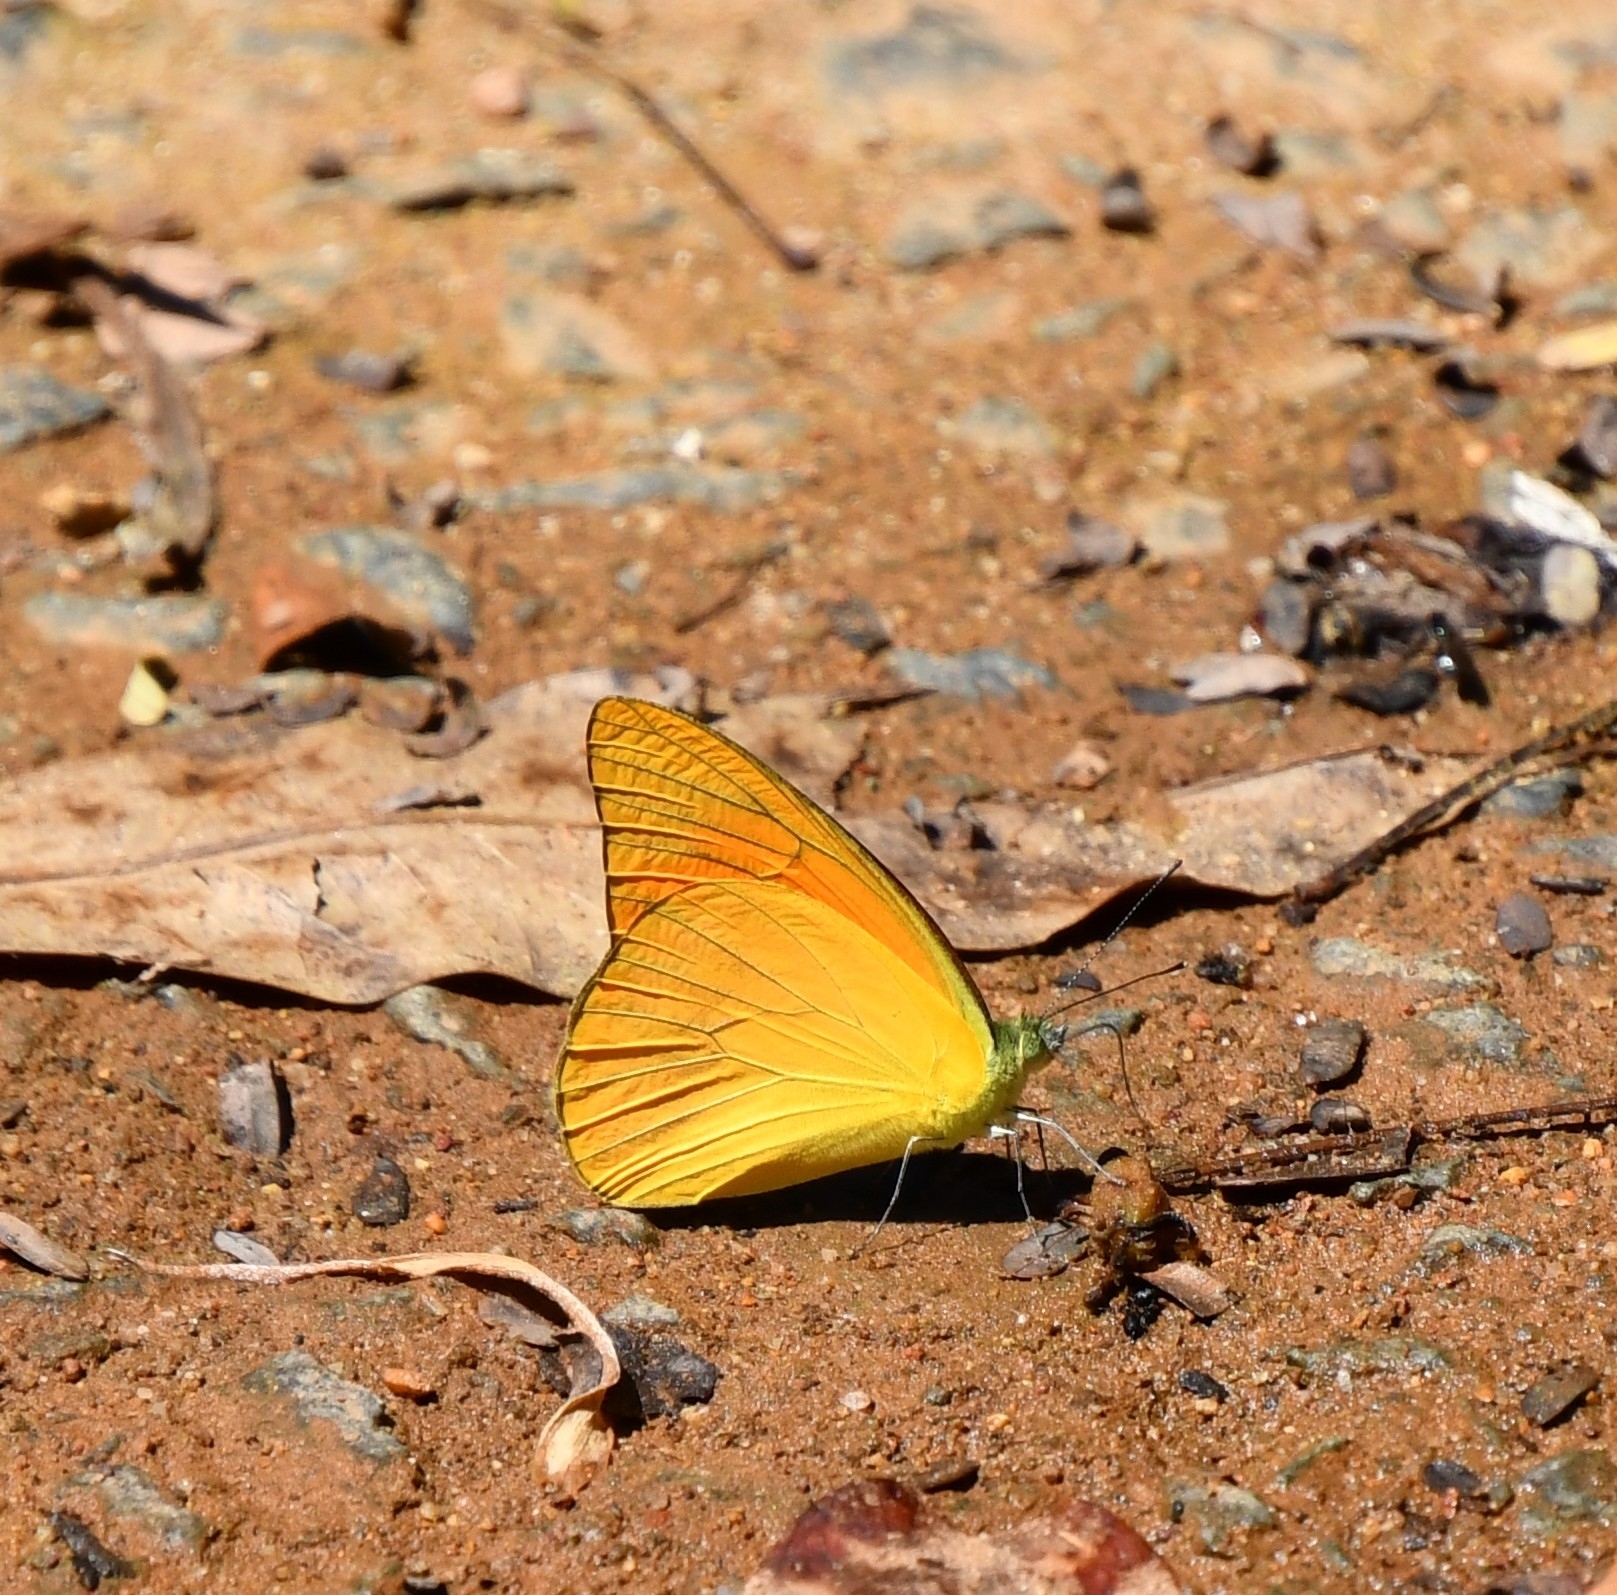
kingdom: Animalia
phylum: Arthropoda
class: Insecta
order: Lepidoptera
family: Pieridae
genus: Appias
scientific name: Appias nero
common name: Orange albatross
